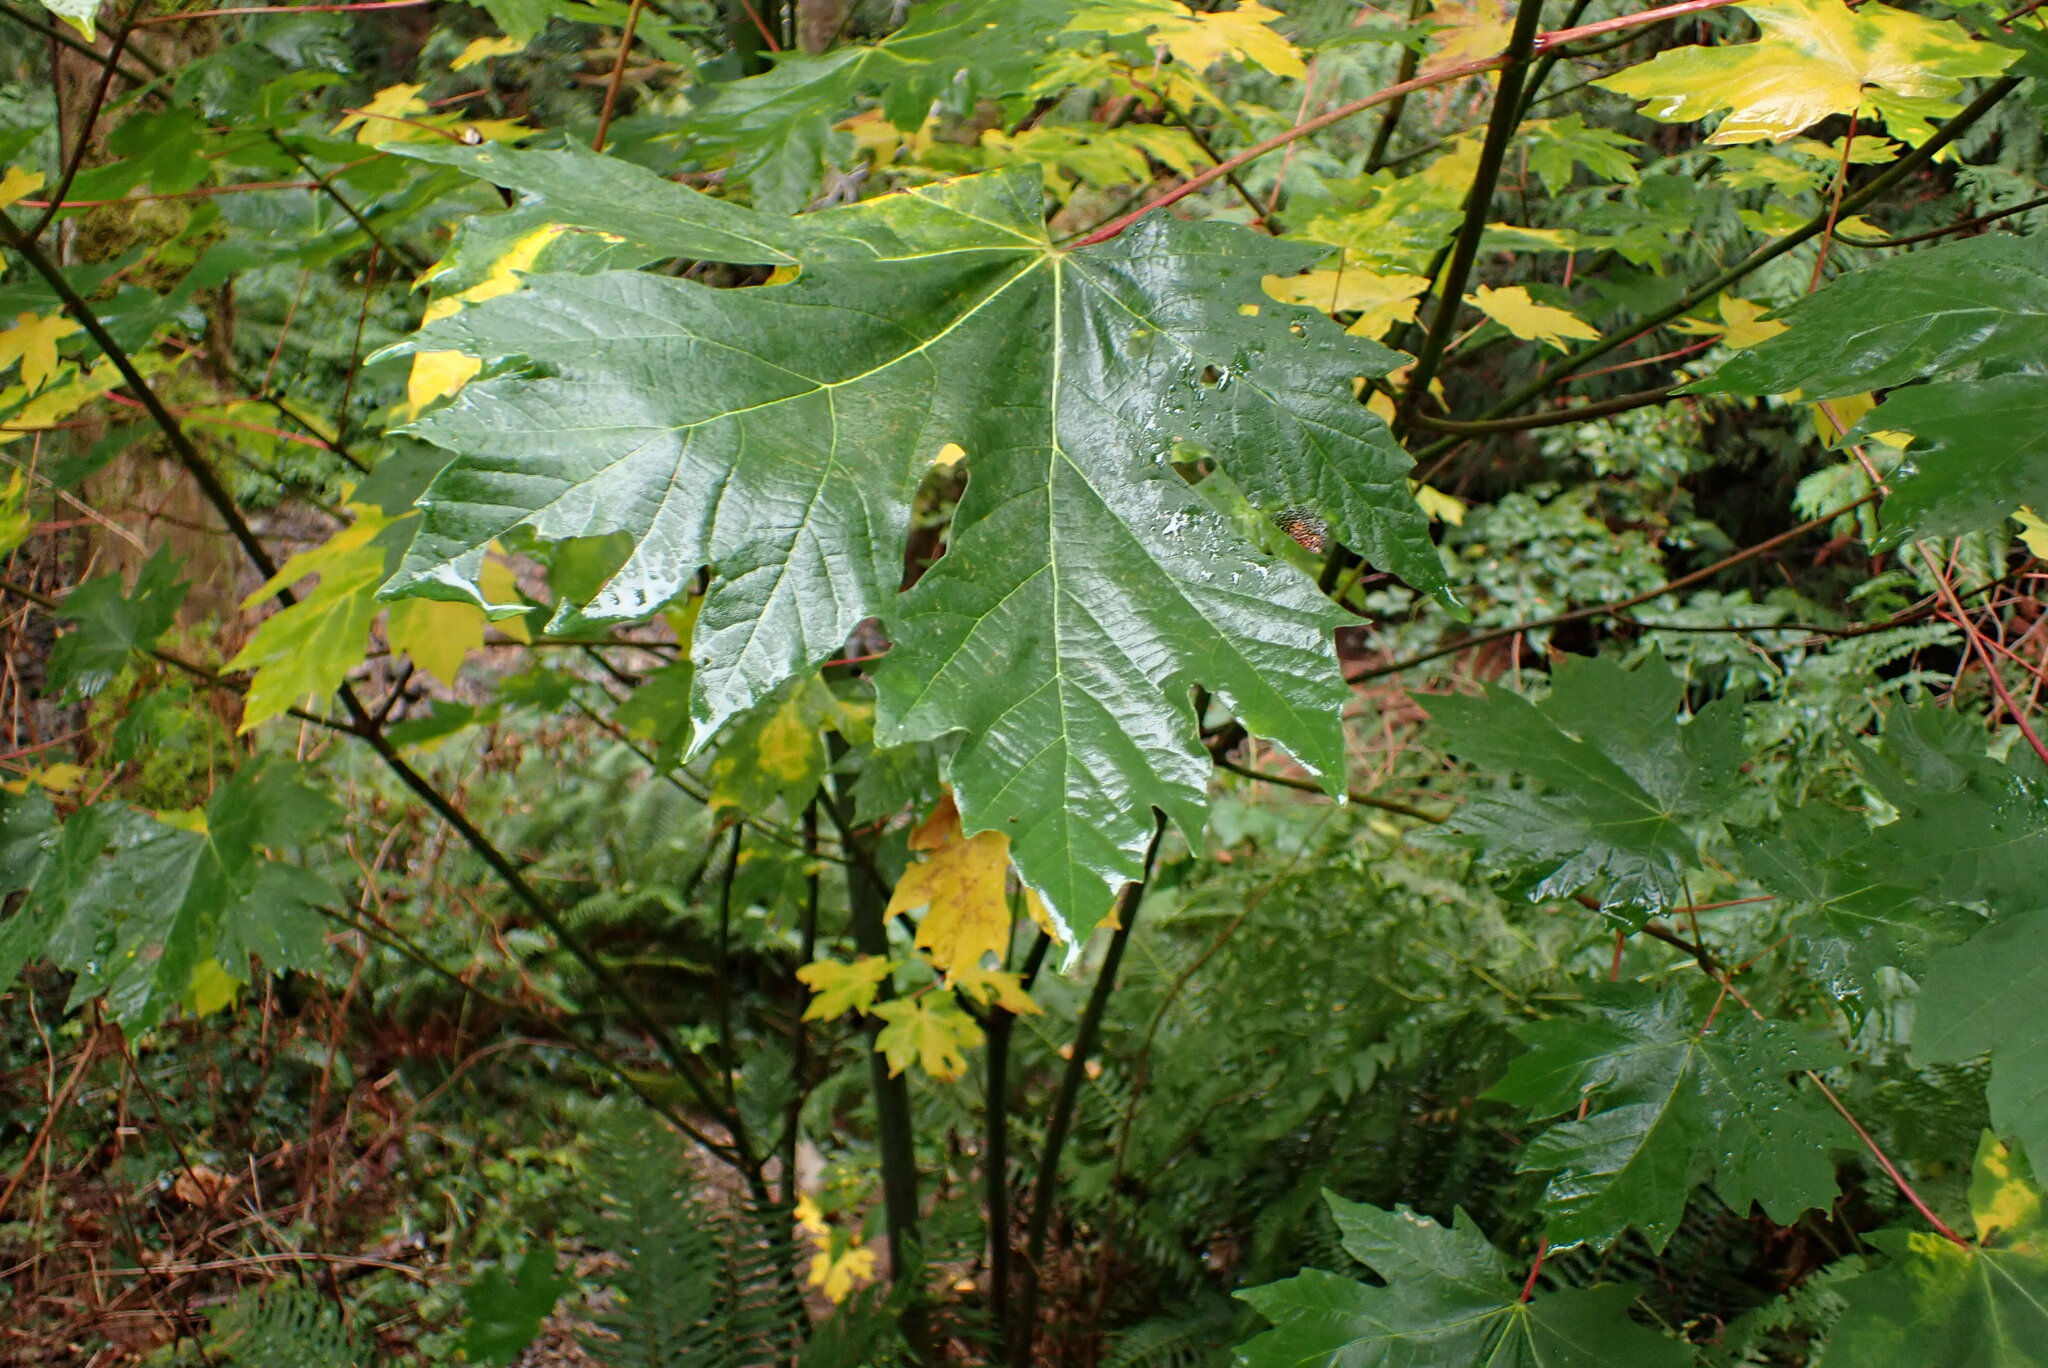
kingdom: Plantae
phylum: Tracheophyta
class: Magnoliopsida
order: Sapindales
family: Sapindaceae
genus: Acer
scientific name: Acer macrophyllum
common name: Oregon maple
